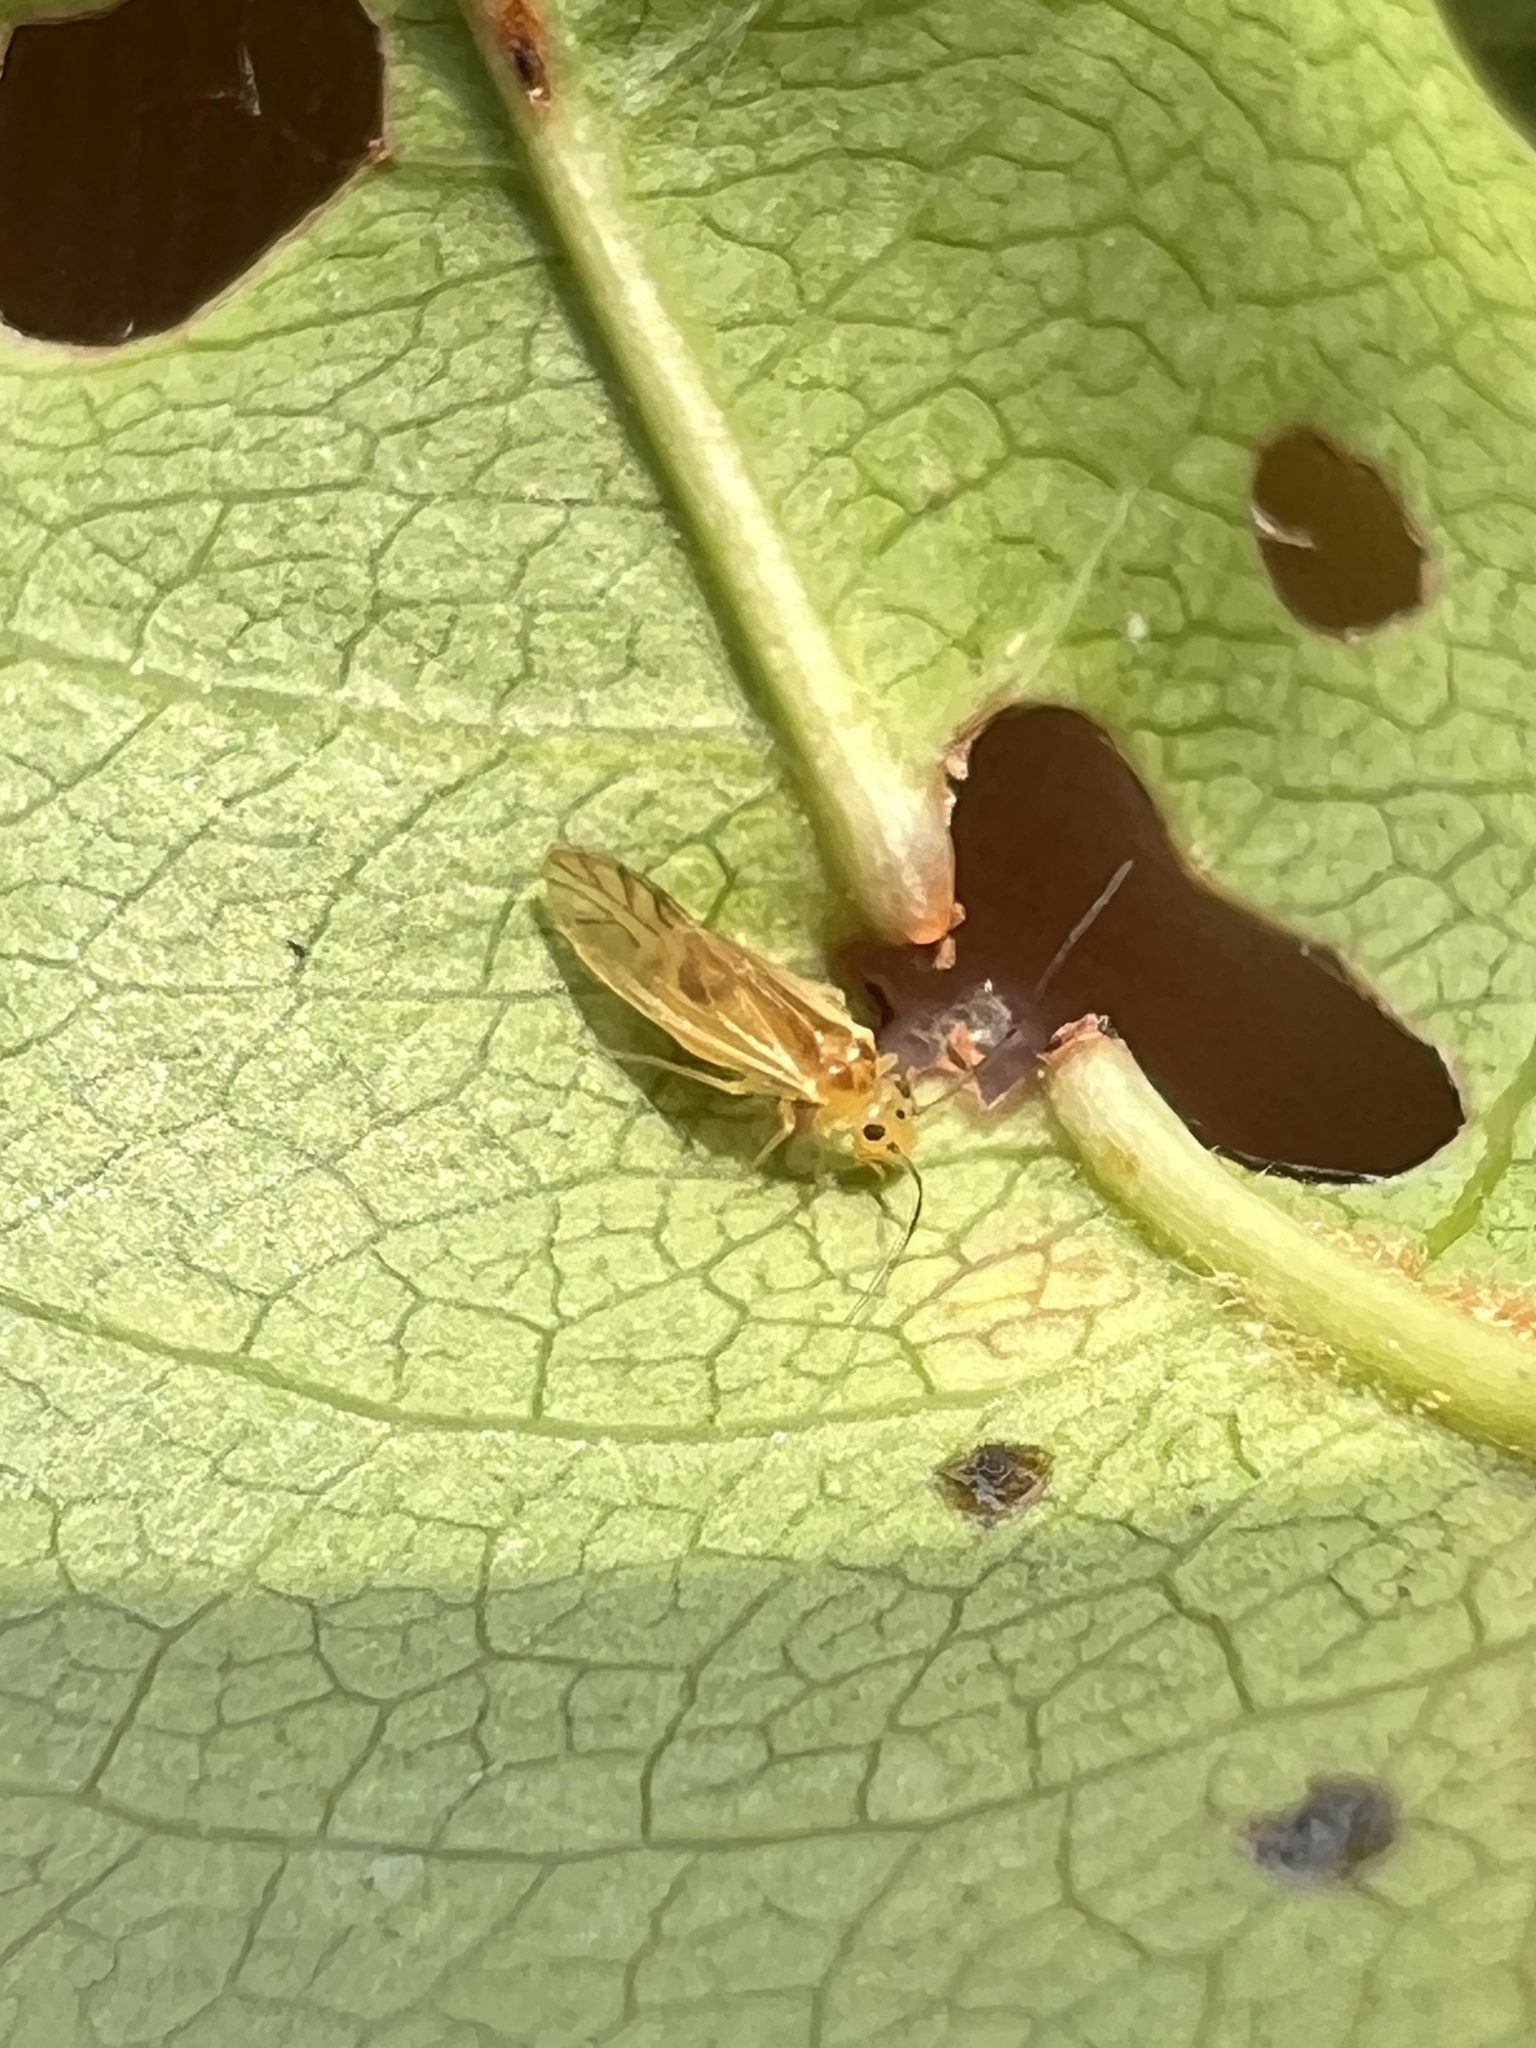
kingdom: Animalia
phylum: Arthropoda
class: Insecta
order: Psocodea
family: Caeciliusidae
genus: Valenzuela
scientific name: Valenzuela flavidus
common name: Yellow barklouse
